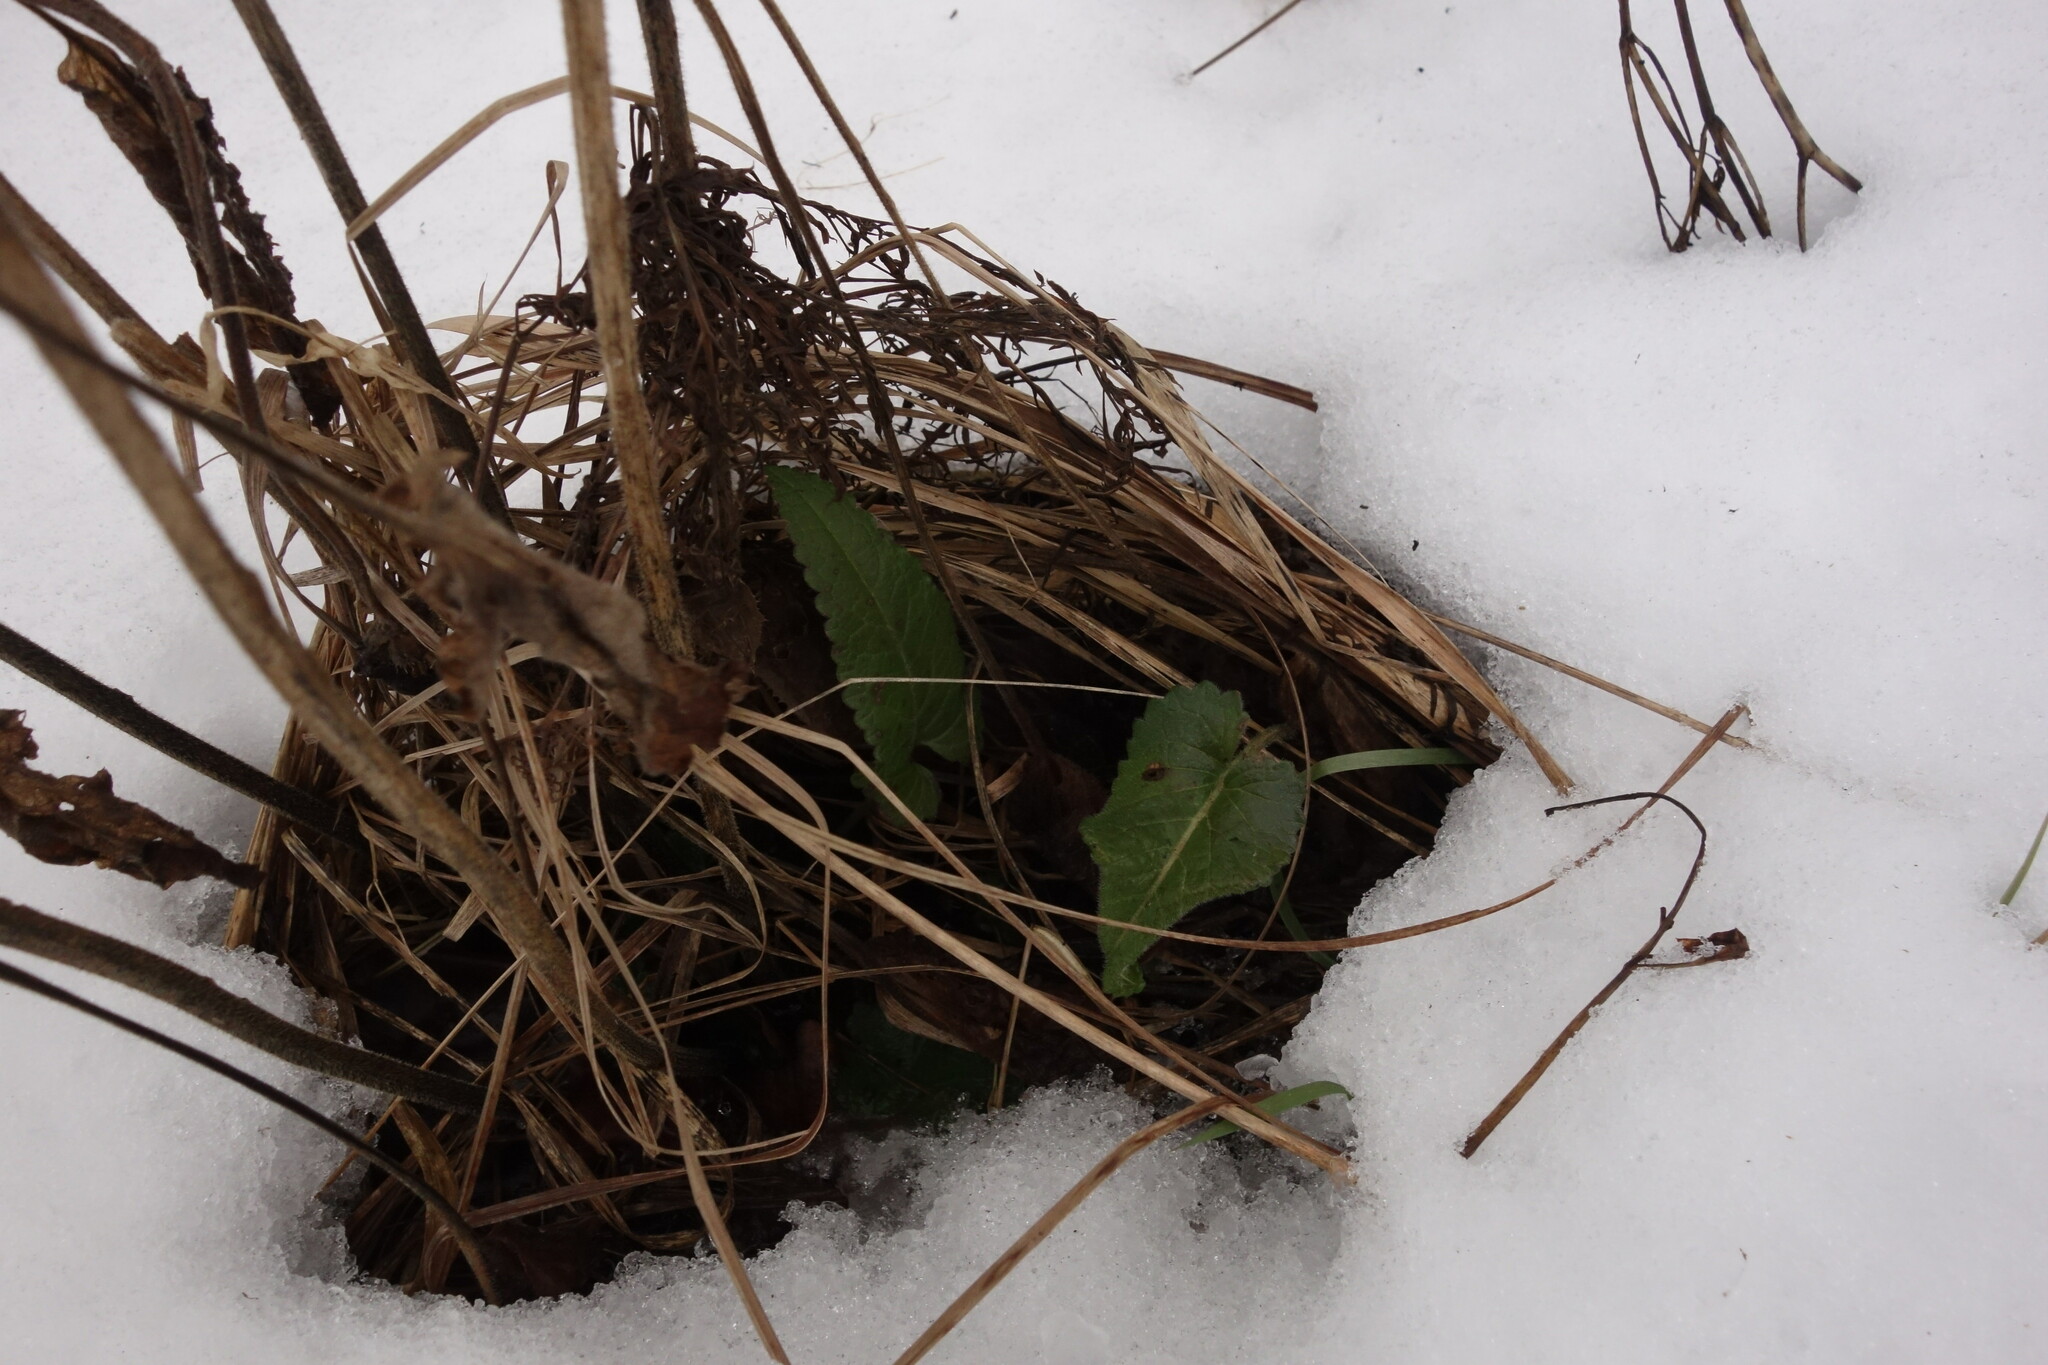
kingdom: Plantae
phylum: Tracheophyta
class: Magnoliopsida
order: Lamiales
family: Lamiaceae
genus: Betonica
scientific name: Betonica officinalis
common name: Bishop's-wort
